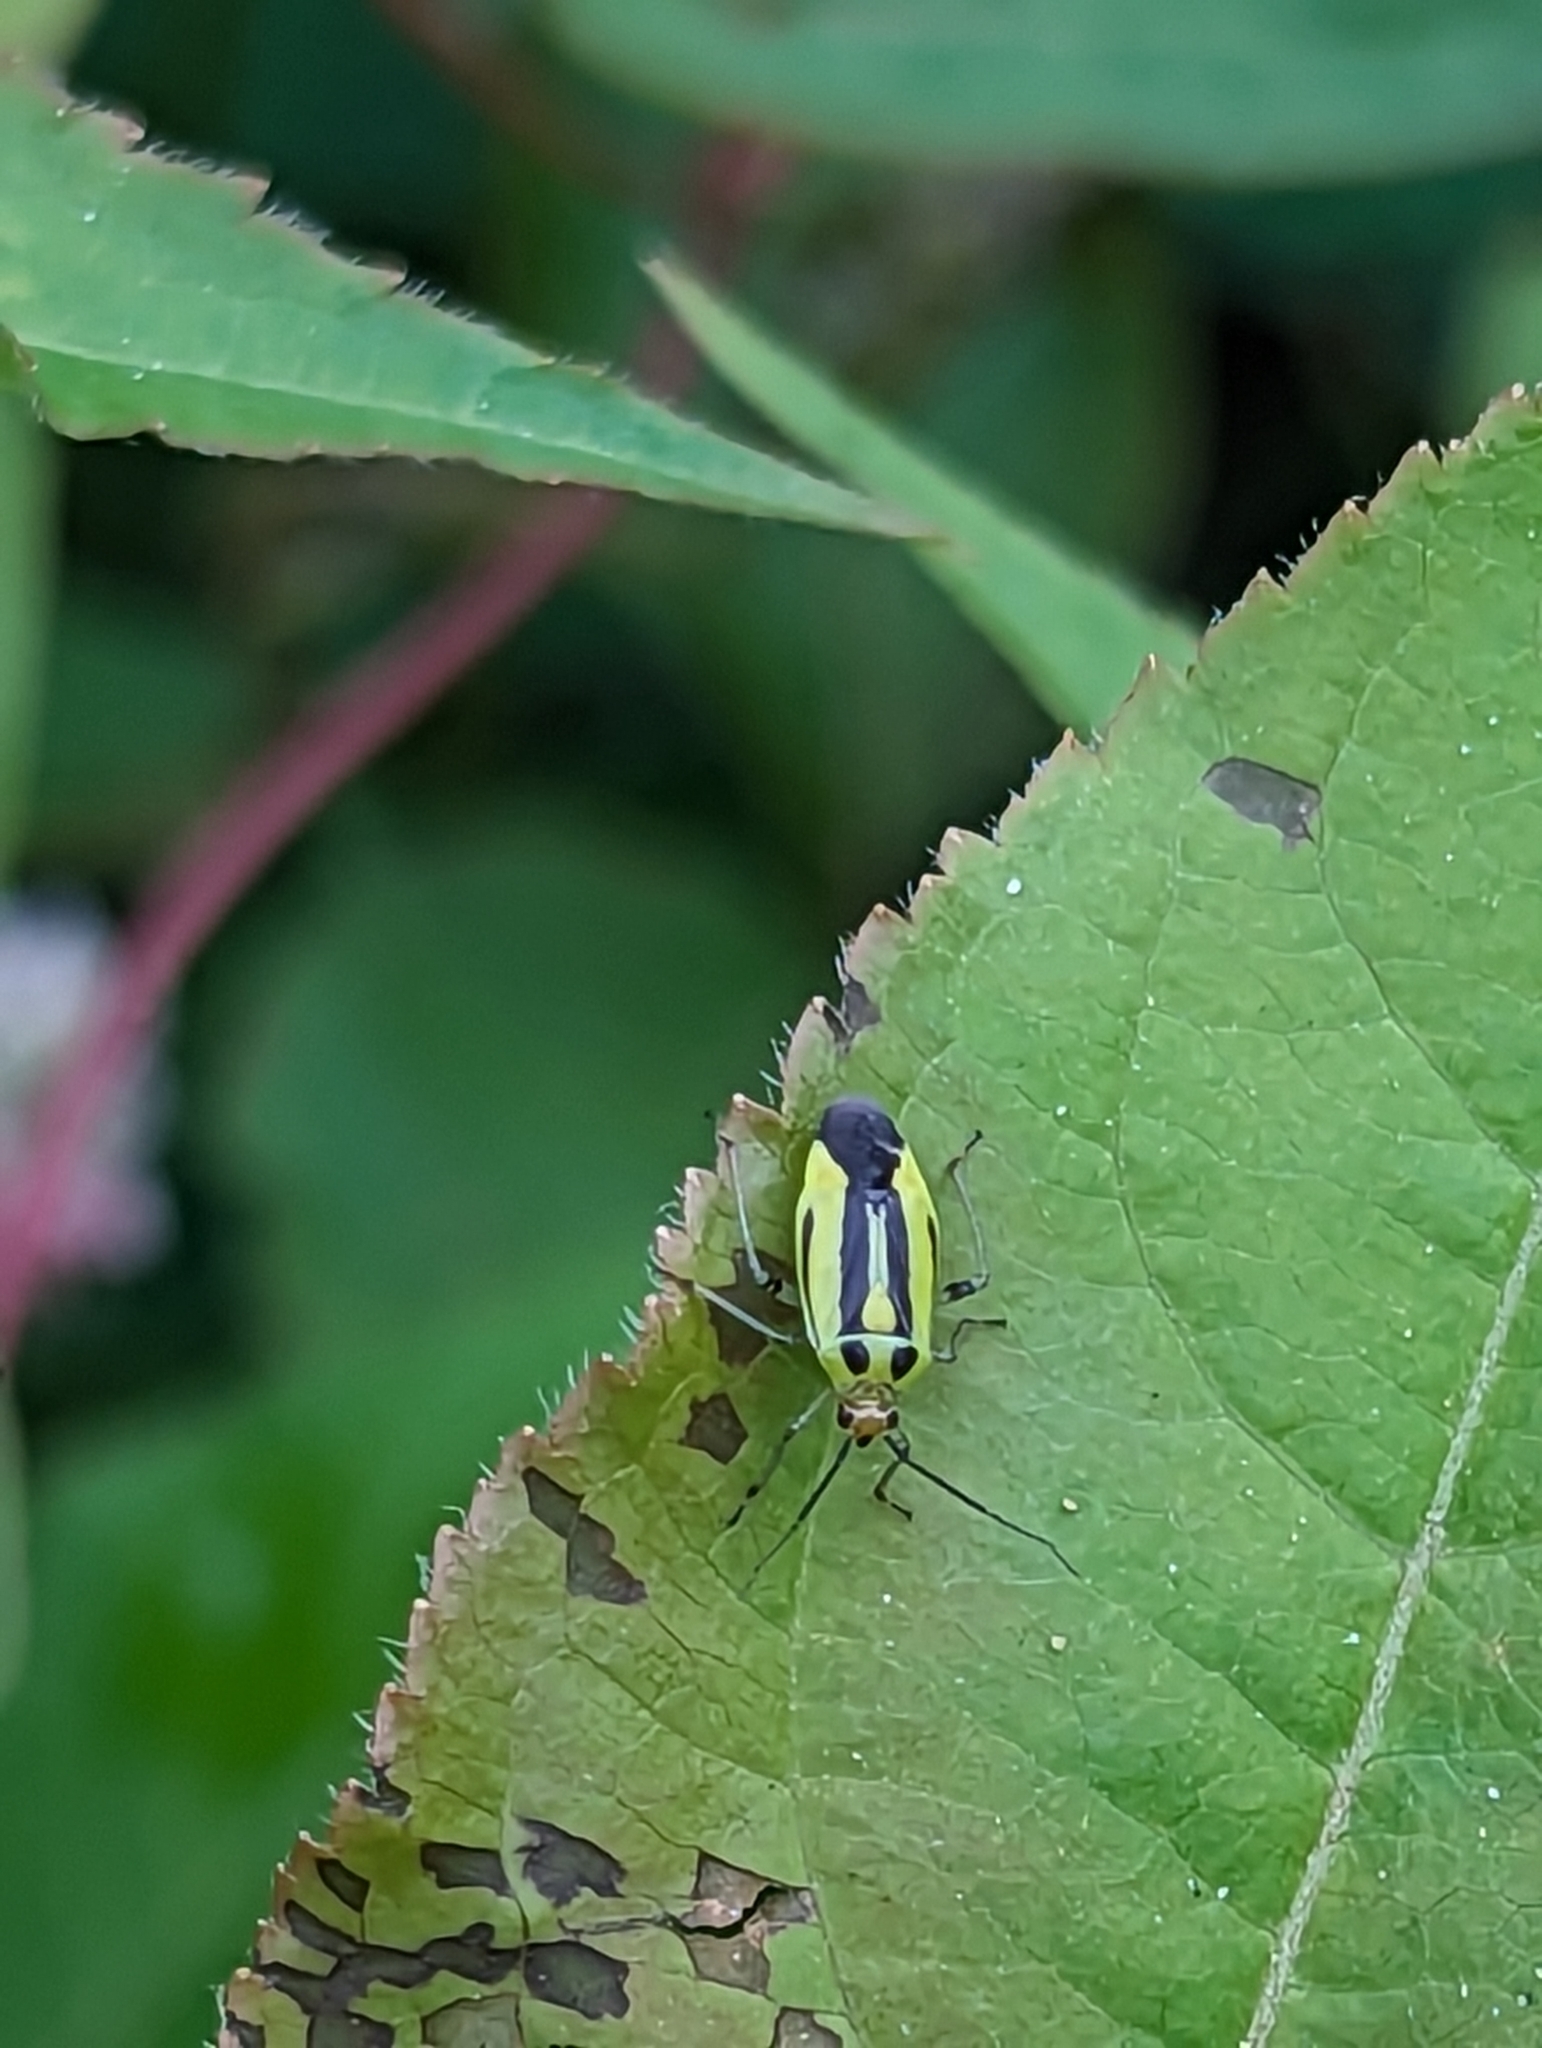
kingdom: Animalia
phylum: Arthropoda
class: Insecta
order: Hemiptera
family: Miridae
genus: Poecilocapsus
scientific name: Poecilocapsus lineatus
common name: Four-lined plant bug
